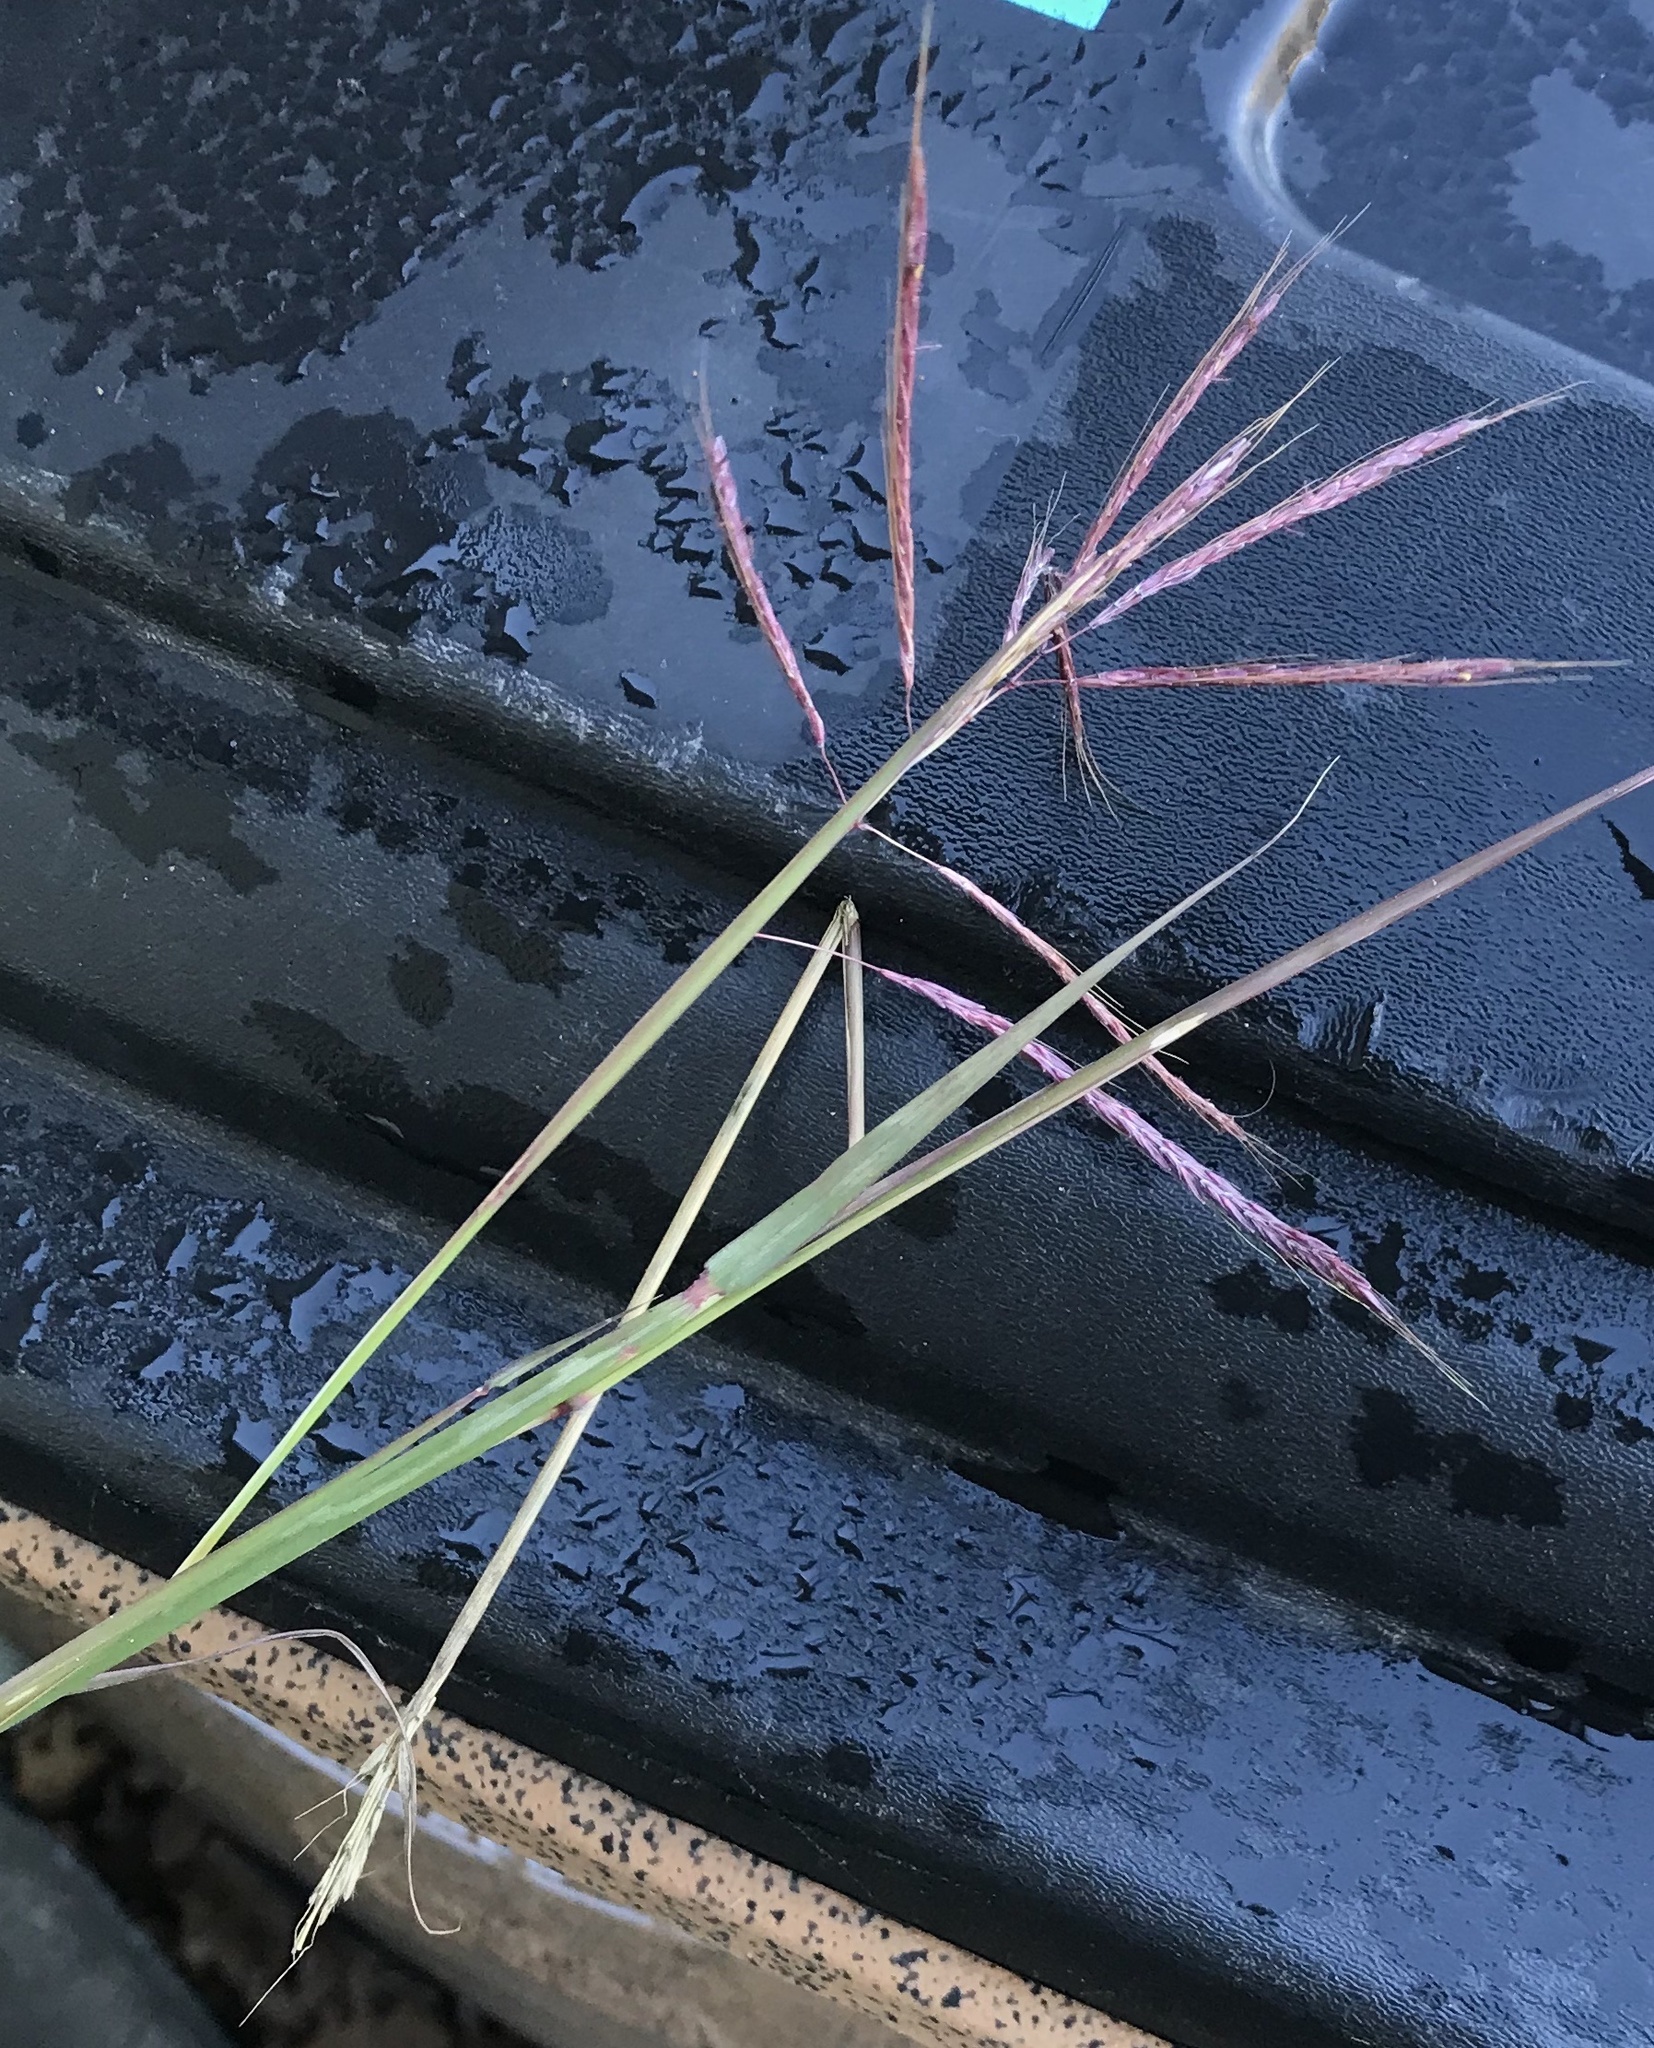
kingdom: Plantae
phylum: Tracheophyta
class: Liliopsida
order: Poales
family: Poaceae
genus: Bothriochloa
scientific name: Bothriochloa ischaemum
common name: Yellow bluestem
